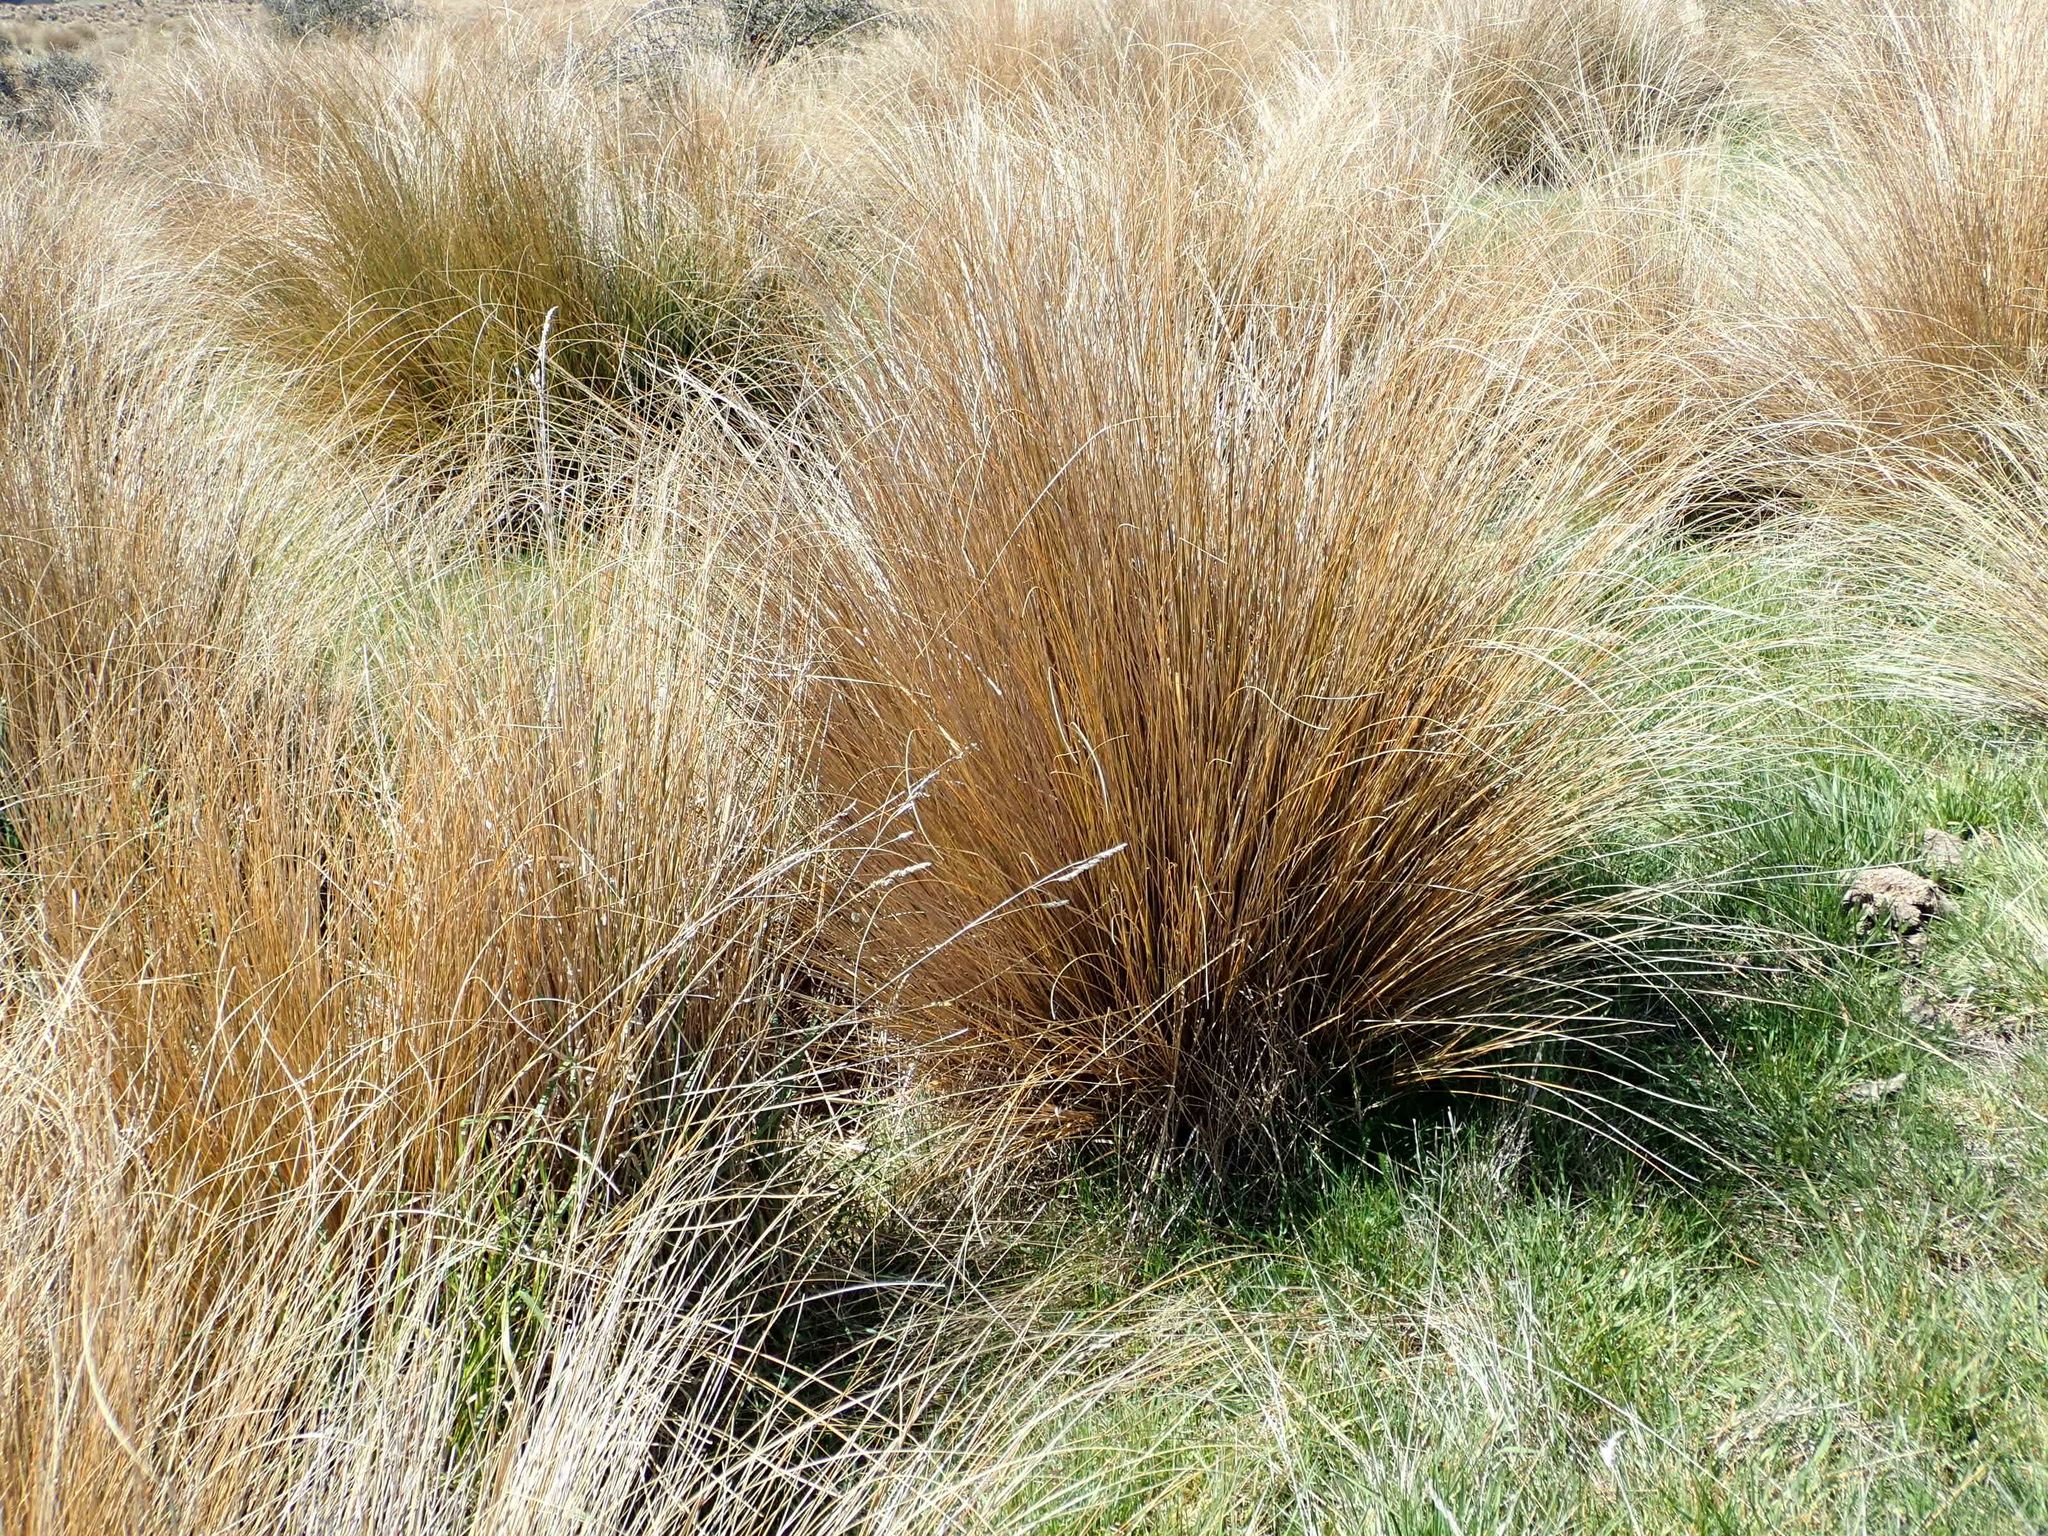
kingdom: Plantae
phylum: Tracheophyta
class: Liliopsida
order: Poales
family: Poaceae
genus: Chionochloa
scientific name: Chionochloa rubra
